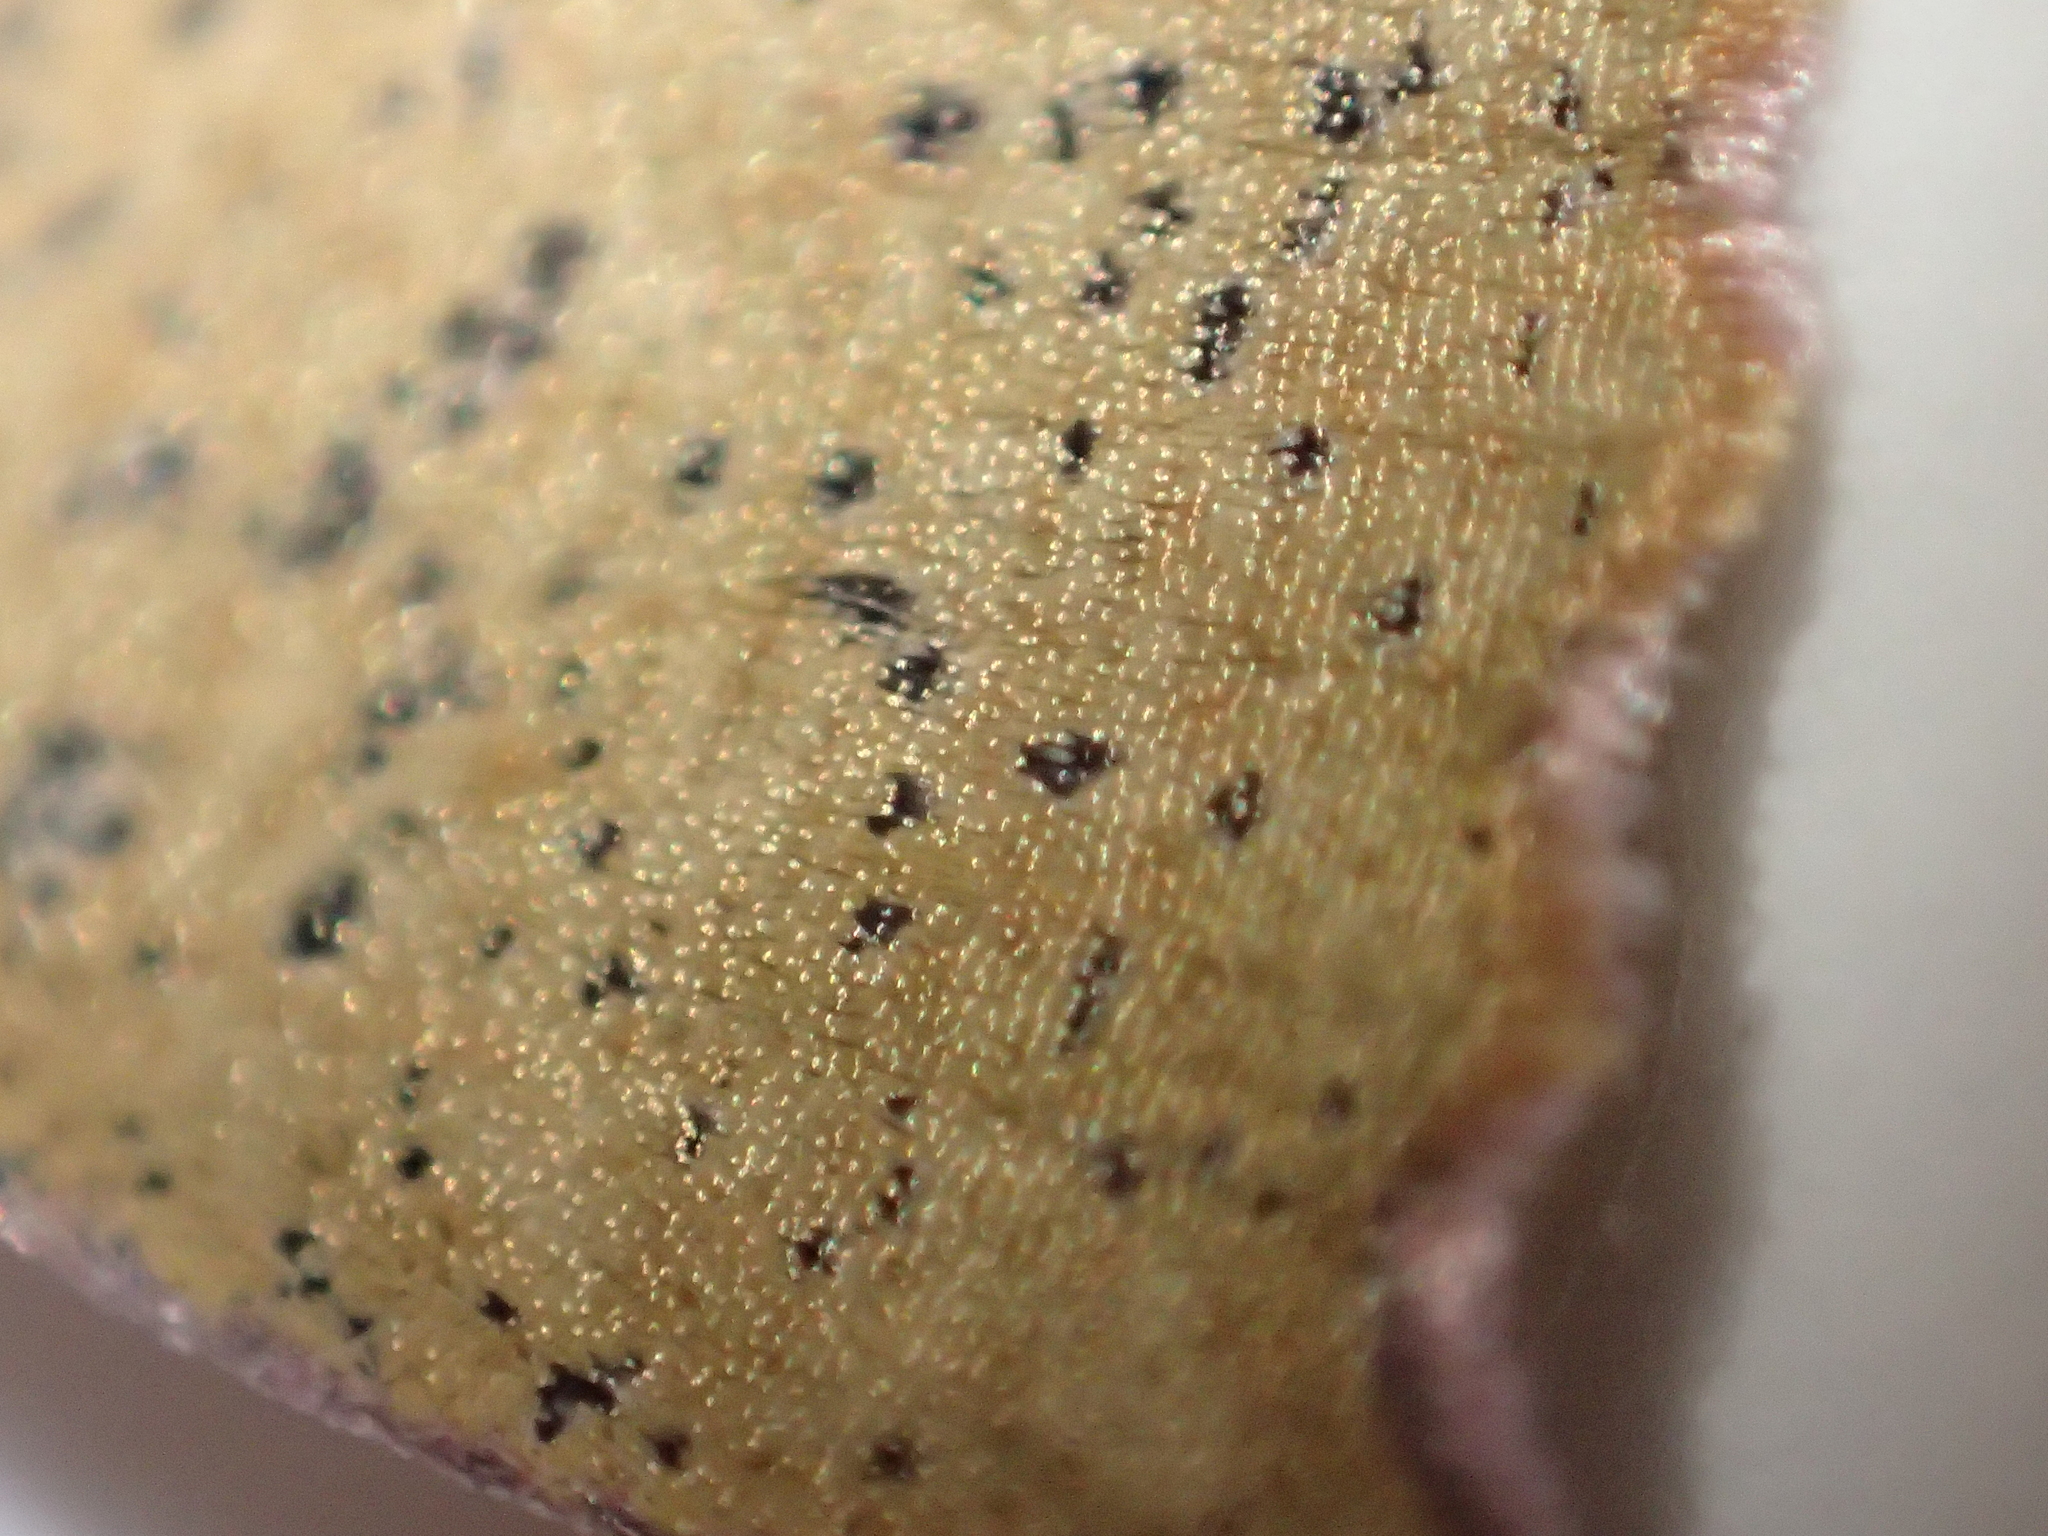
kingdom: Animalia
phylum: Arthropoda
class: Insecta
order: Lepidoptera
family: Geometridae
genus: Xyridacma
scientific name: Xyridacma alectoraria
